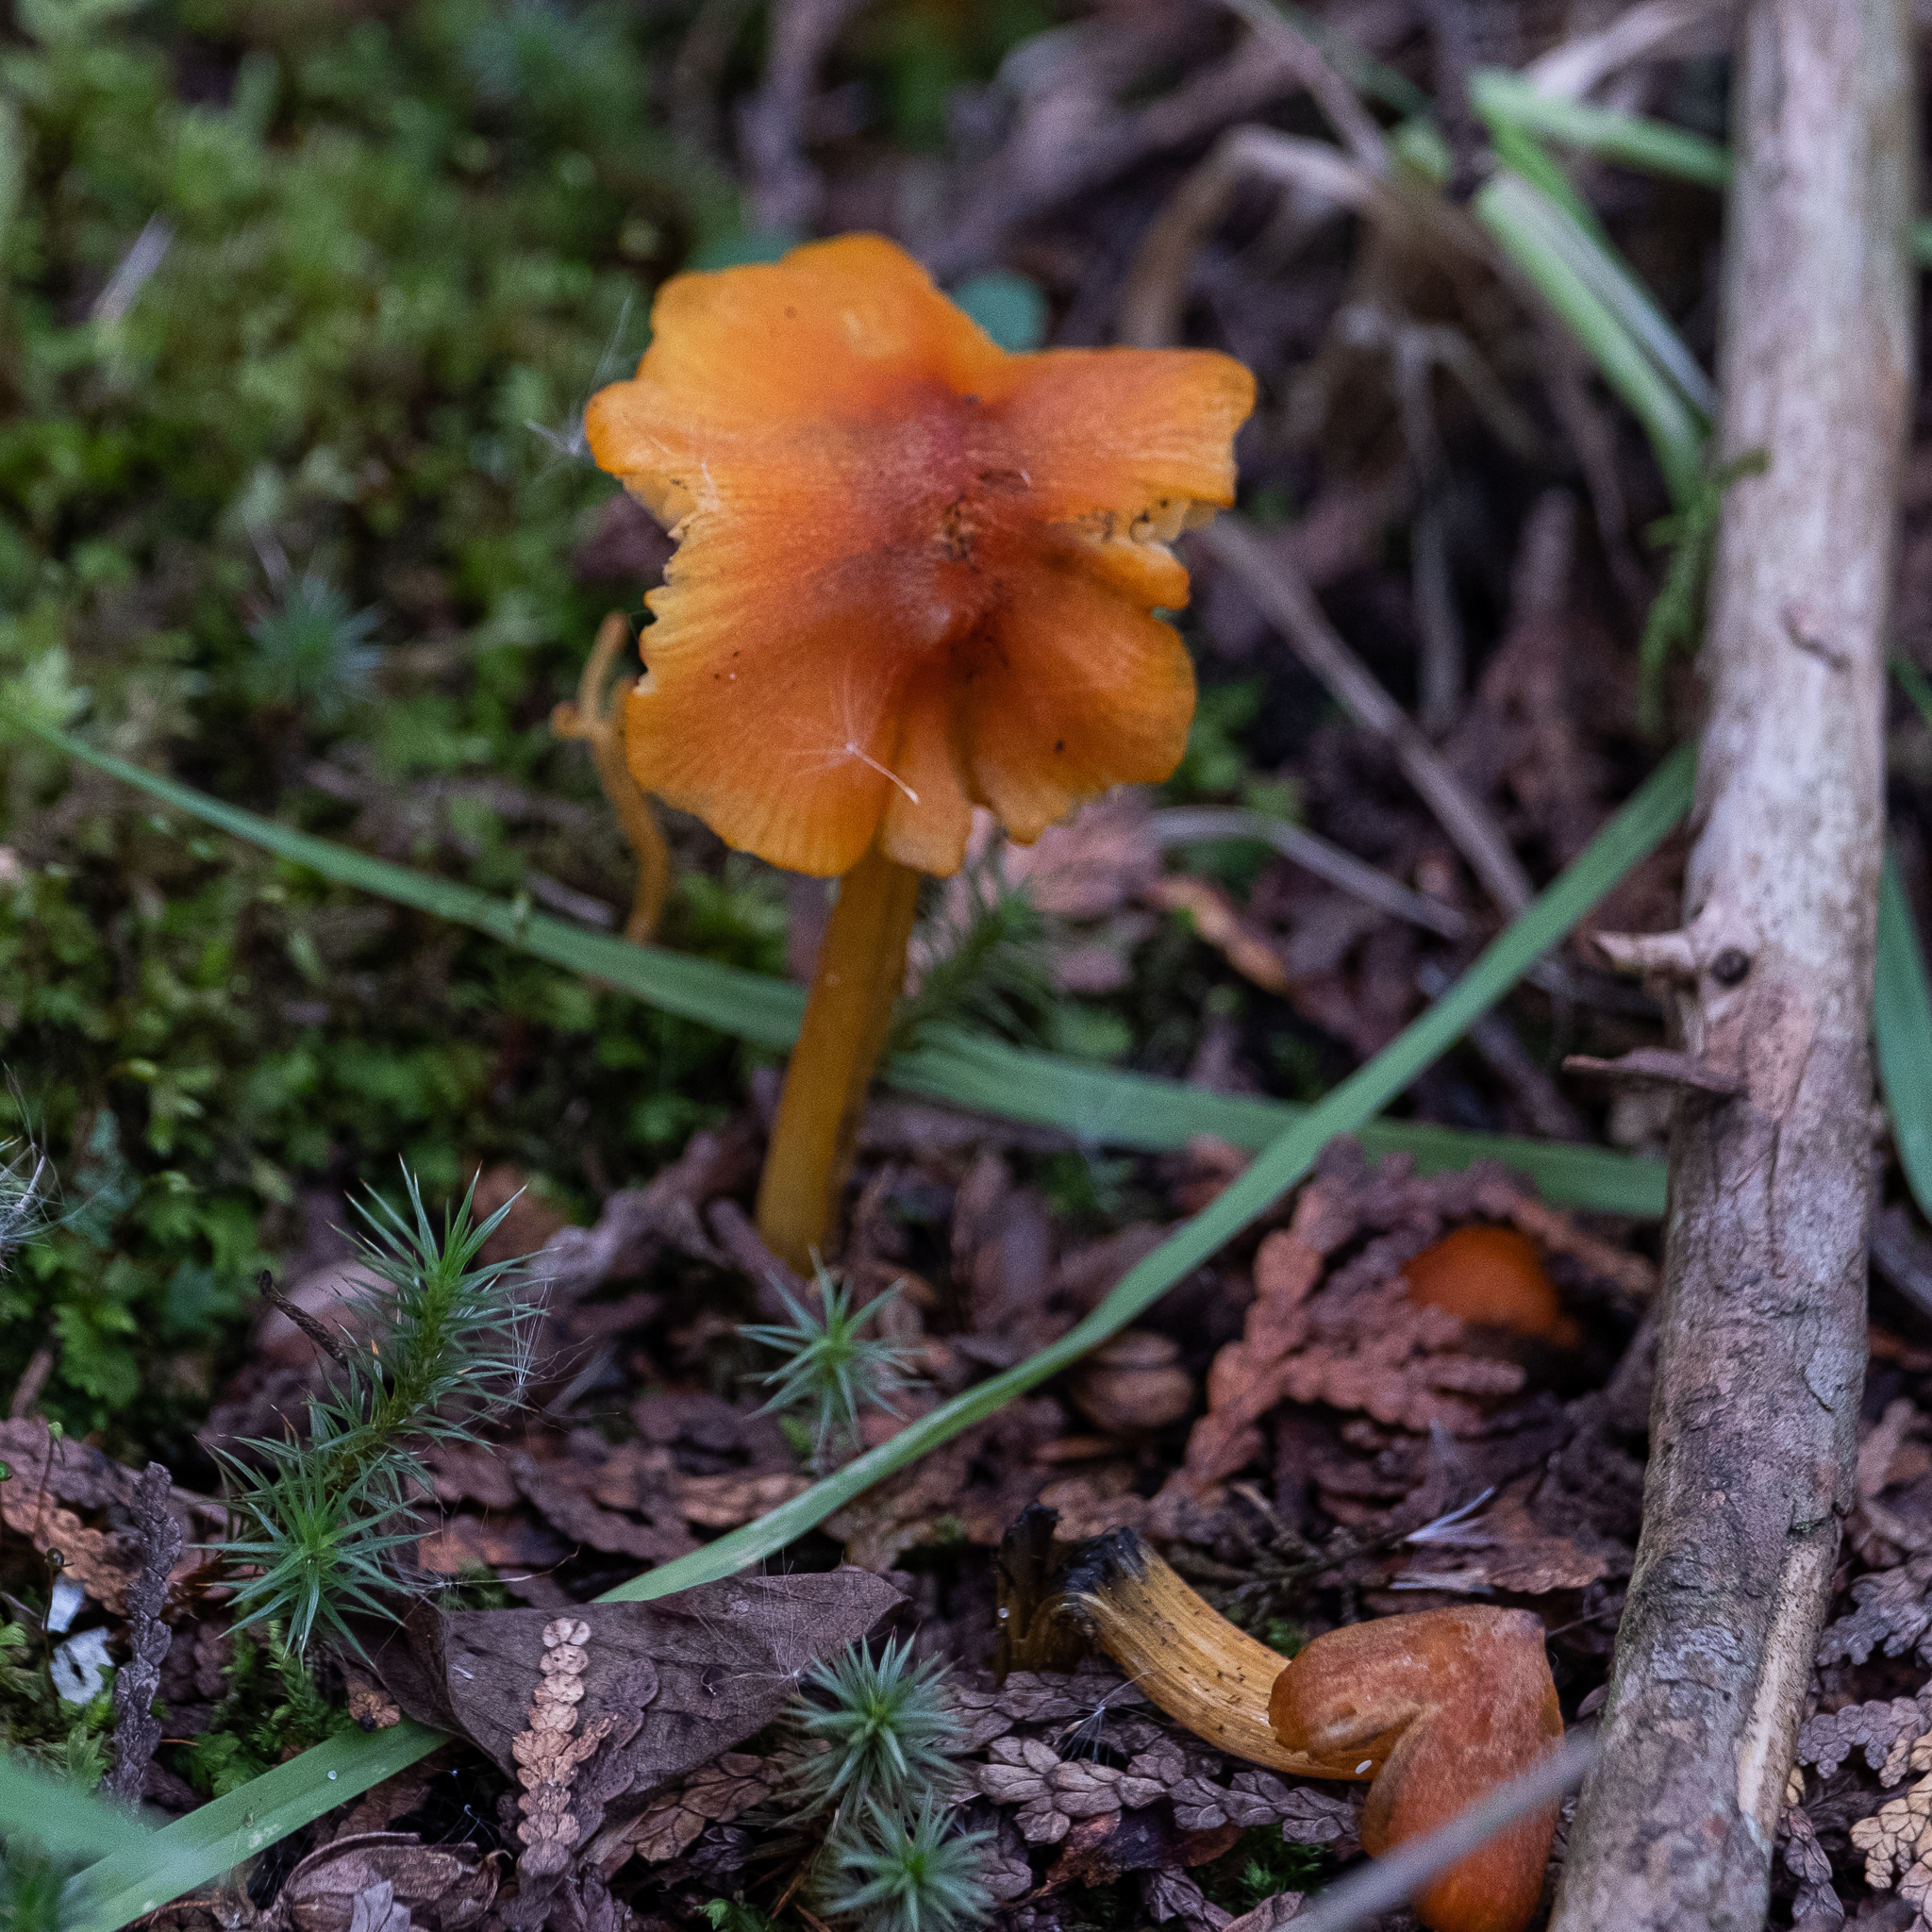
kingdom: Fungi
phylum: Basidiomycota
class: Agaricomycetes
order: Agaricales
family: Hygrophoraceae
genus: Hygrocybe
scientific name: Hygrocybe conica
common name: Blackening wax-cap
